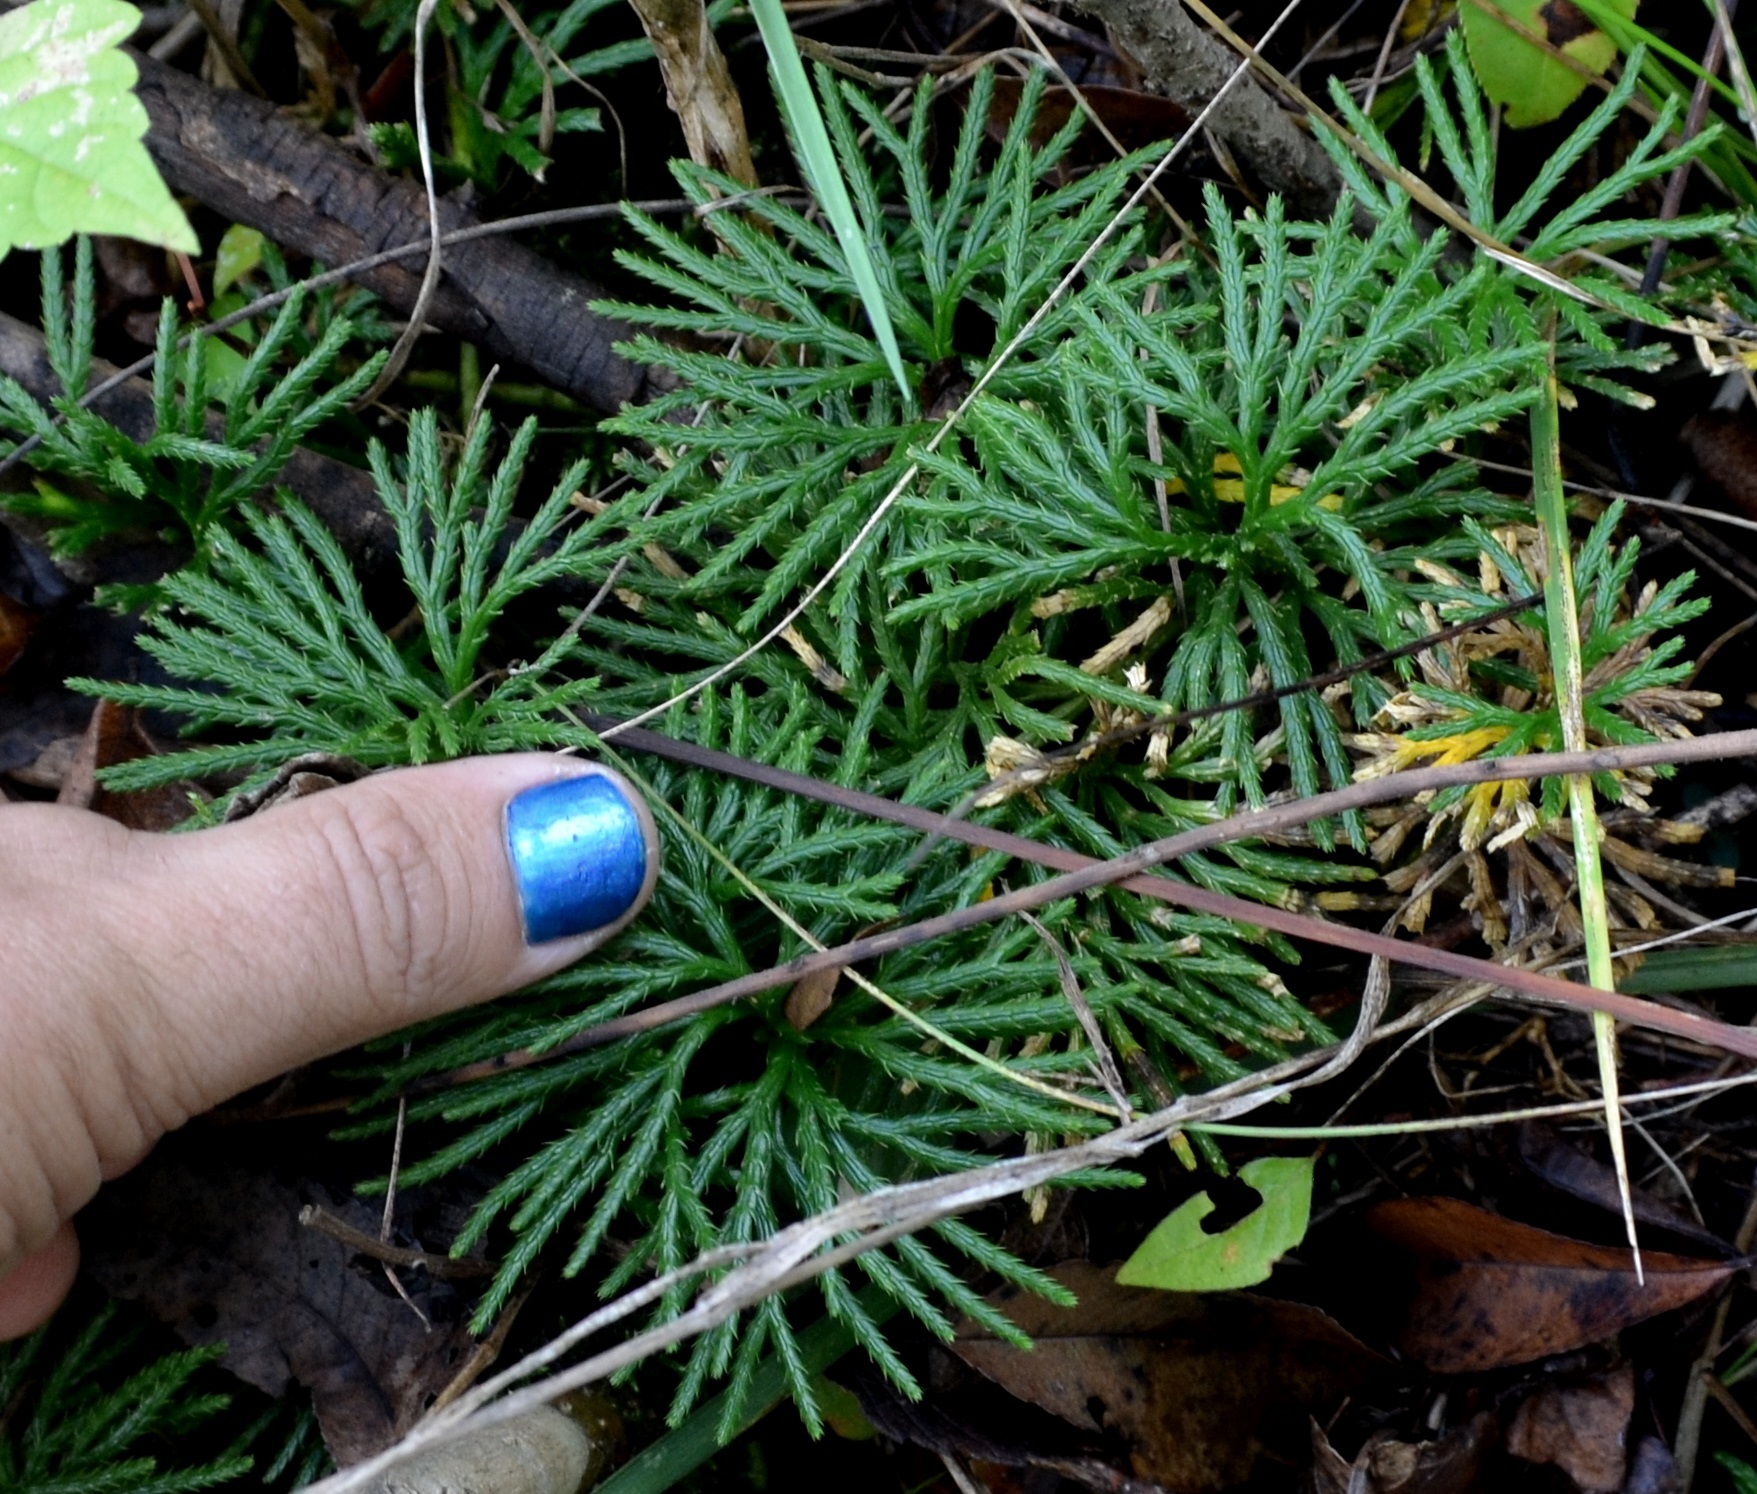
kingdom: Plantae
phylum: Tracheophyta
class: Lycopodiopsida
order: Lycopodiales
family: Lycopodiaceae
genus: Diphasiastrum
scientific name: Diphasiastrum digitatum
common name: Southern running-pine
